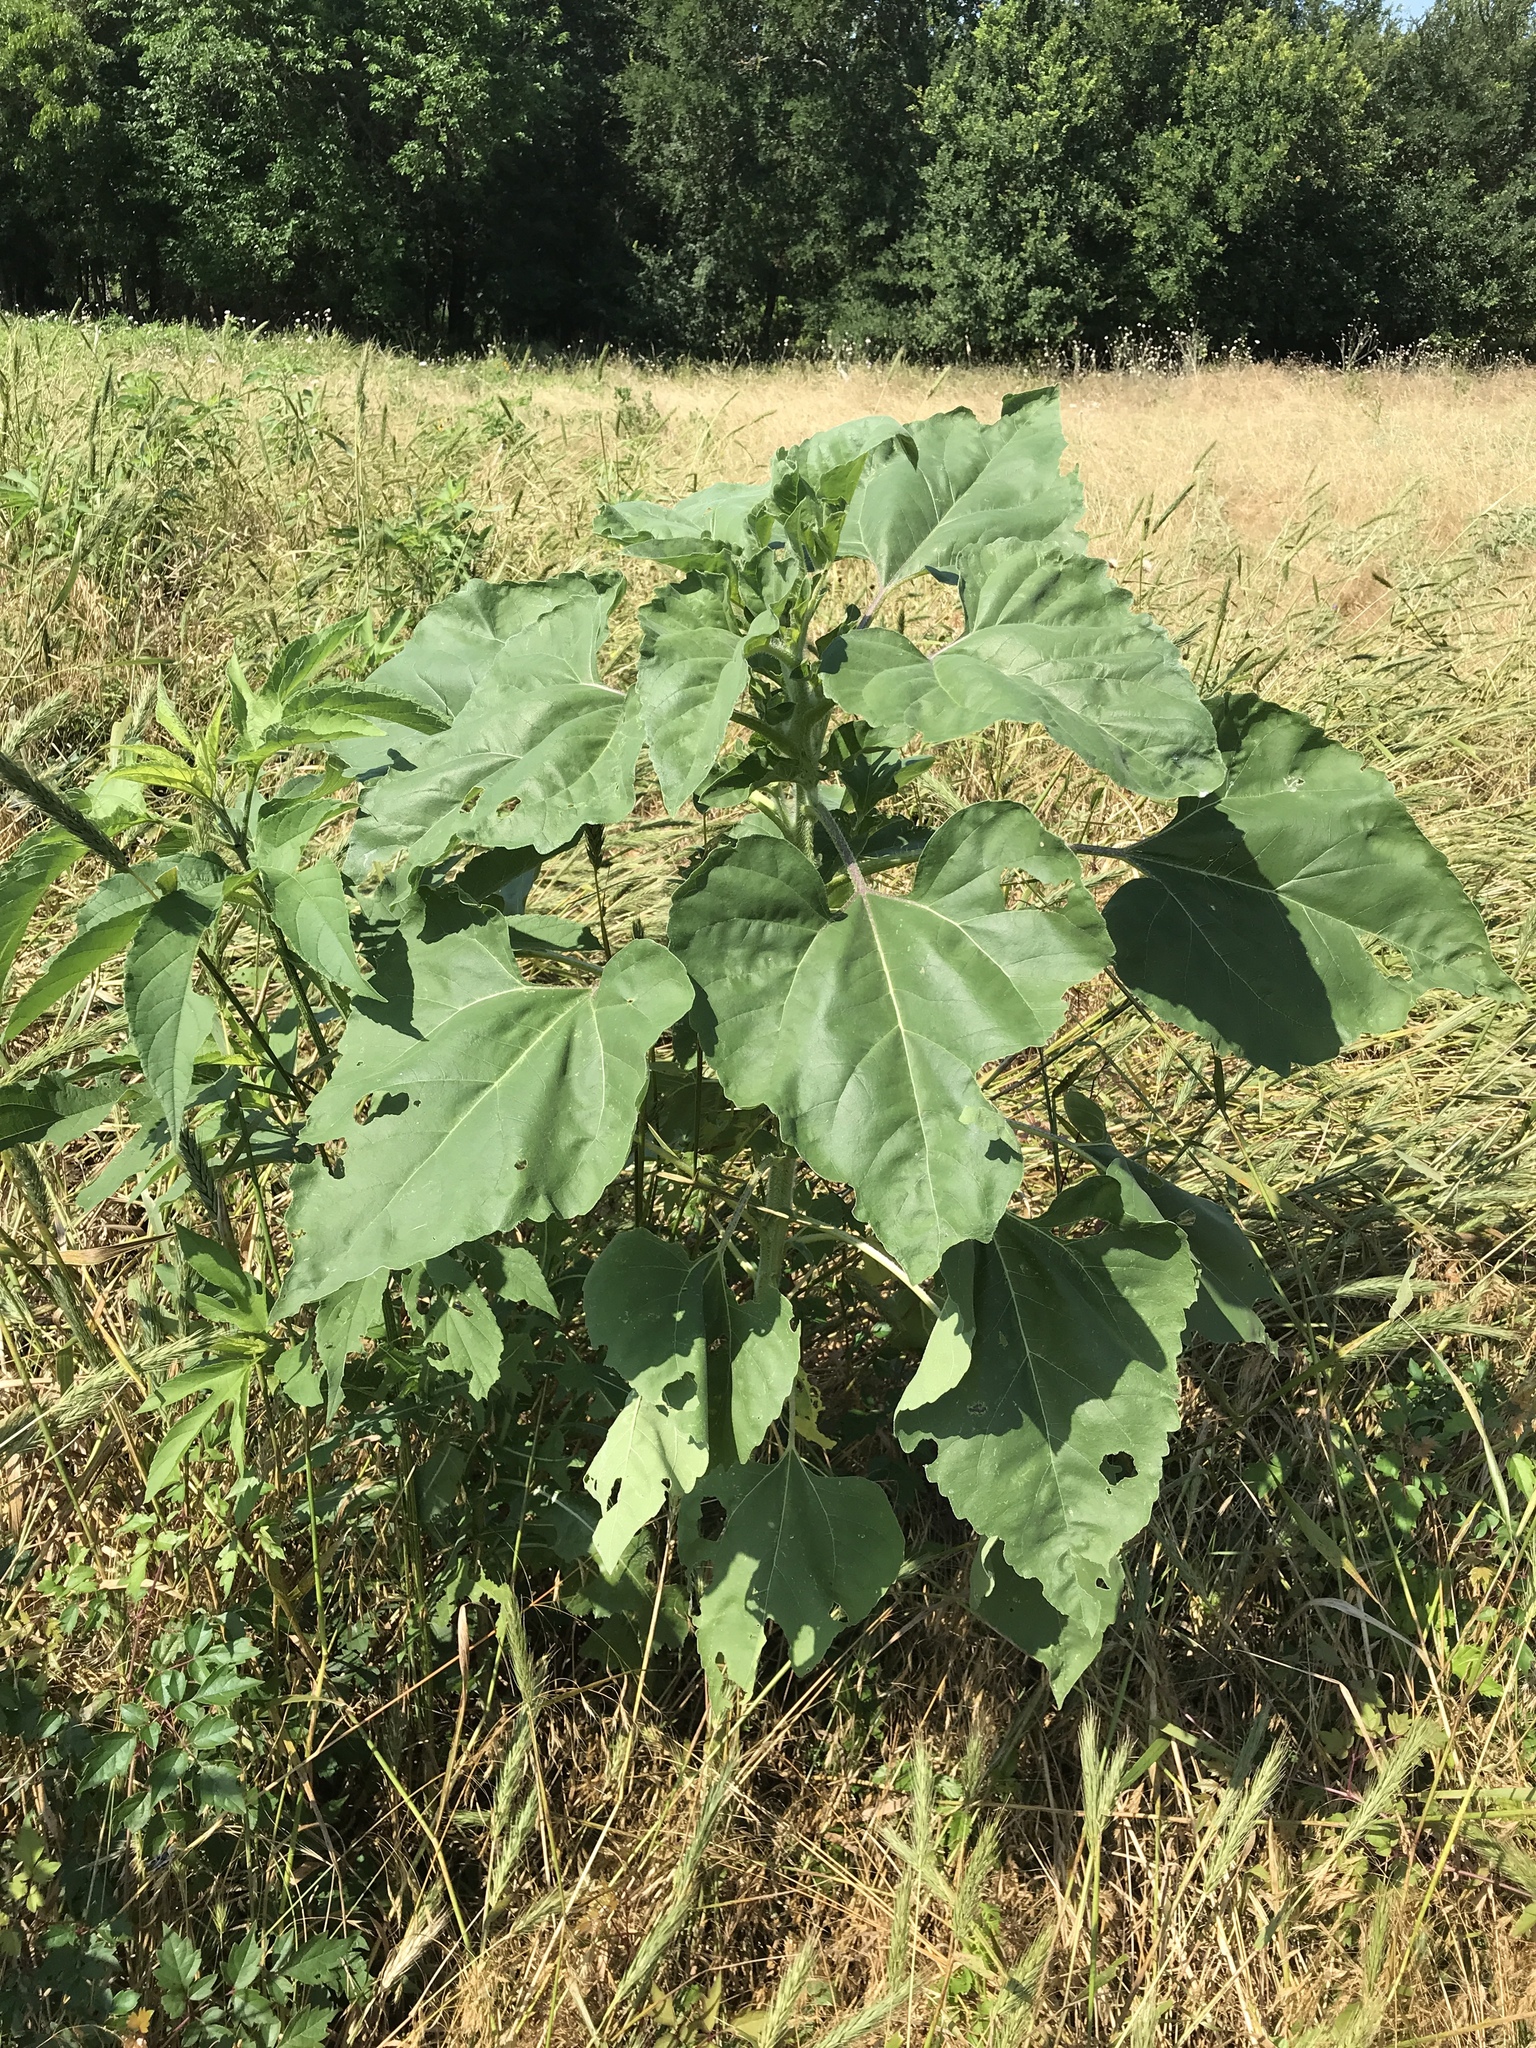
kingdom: Plantae
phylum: Tracheophyta
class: Magnoliopsida
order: Asterales
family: Asteraceae
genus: Helianthus
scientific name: Helianthus annuus
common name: Sunflower
